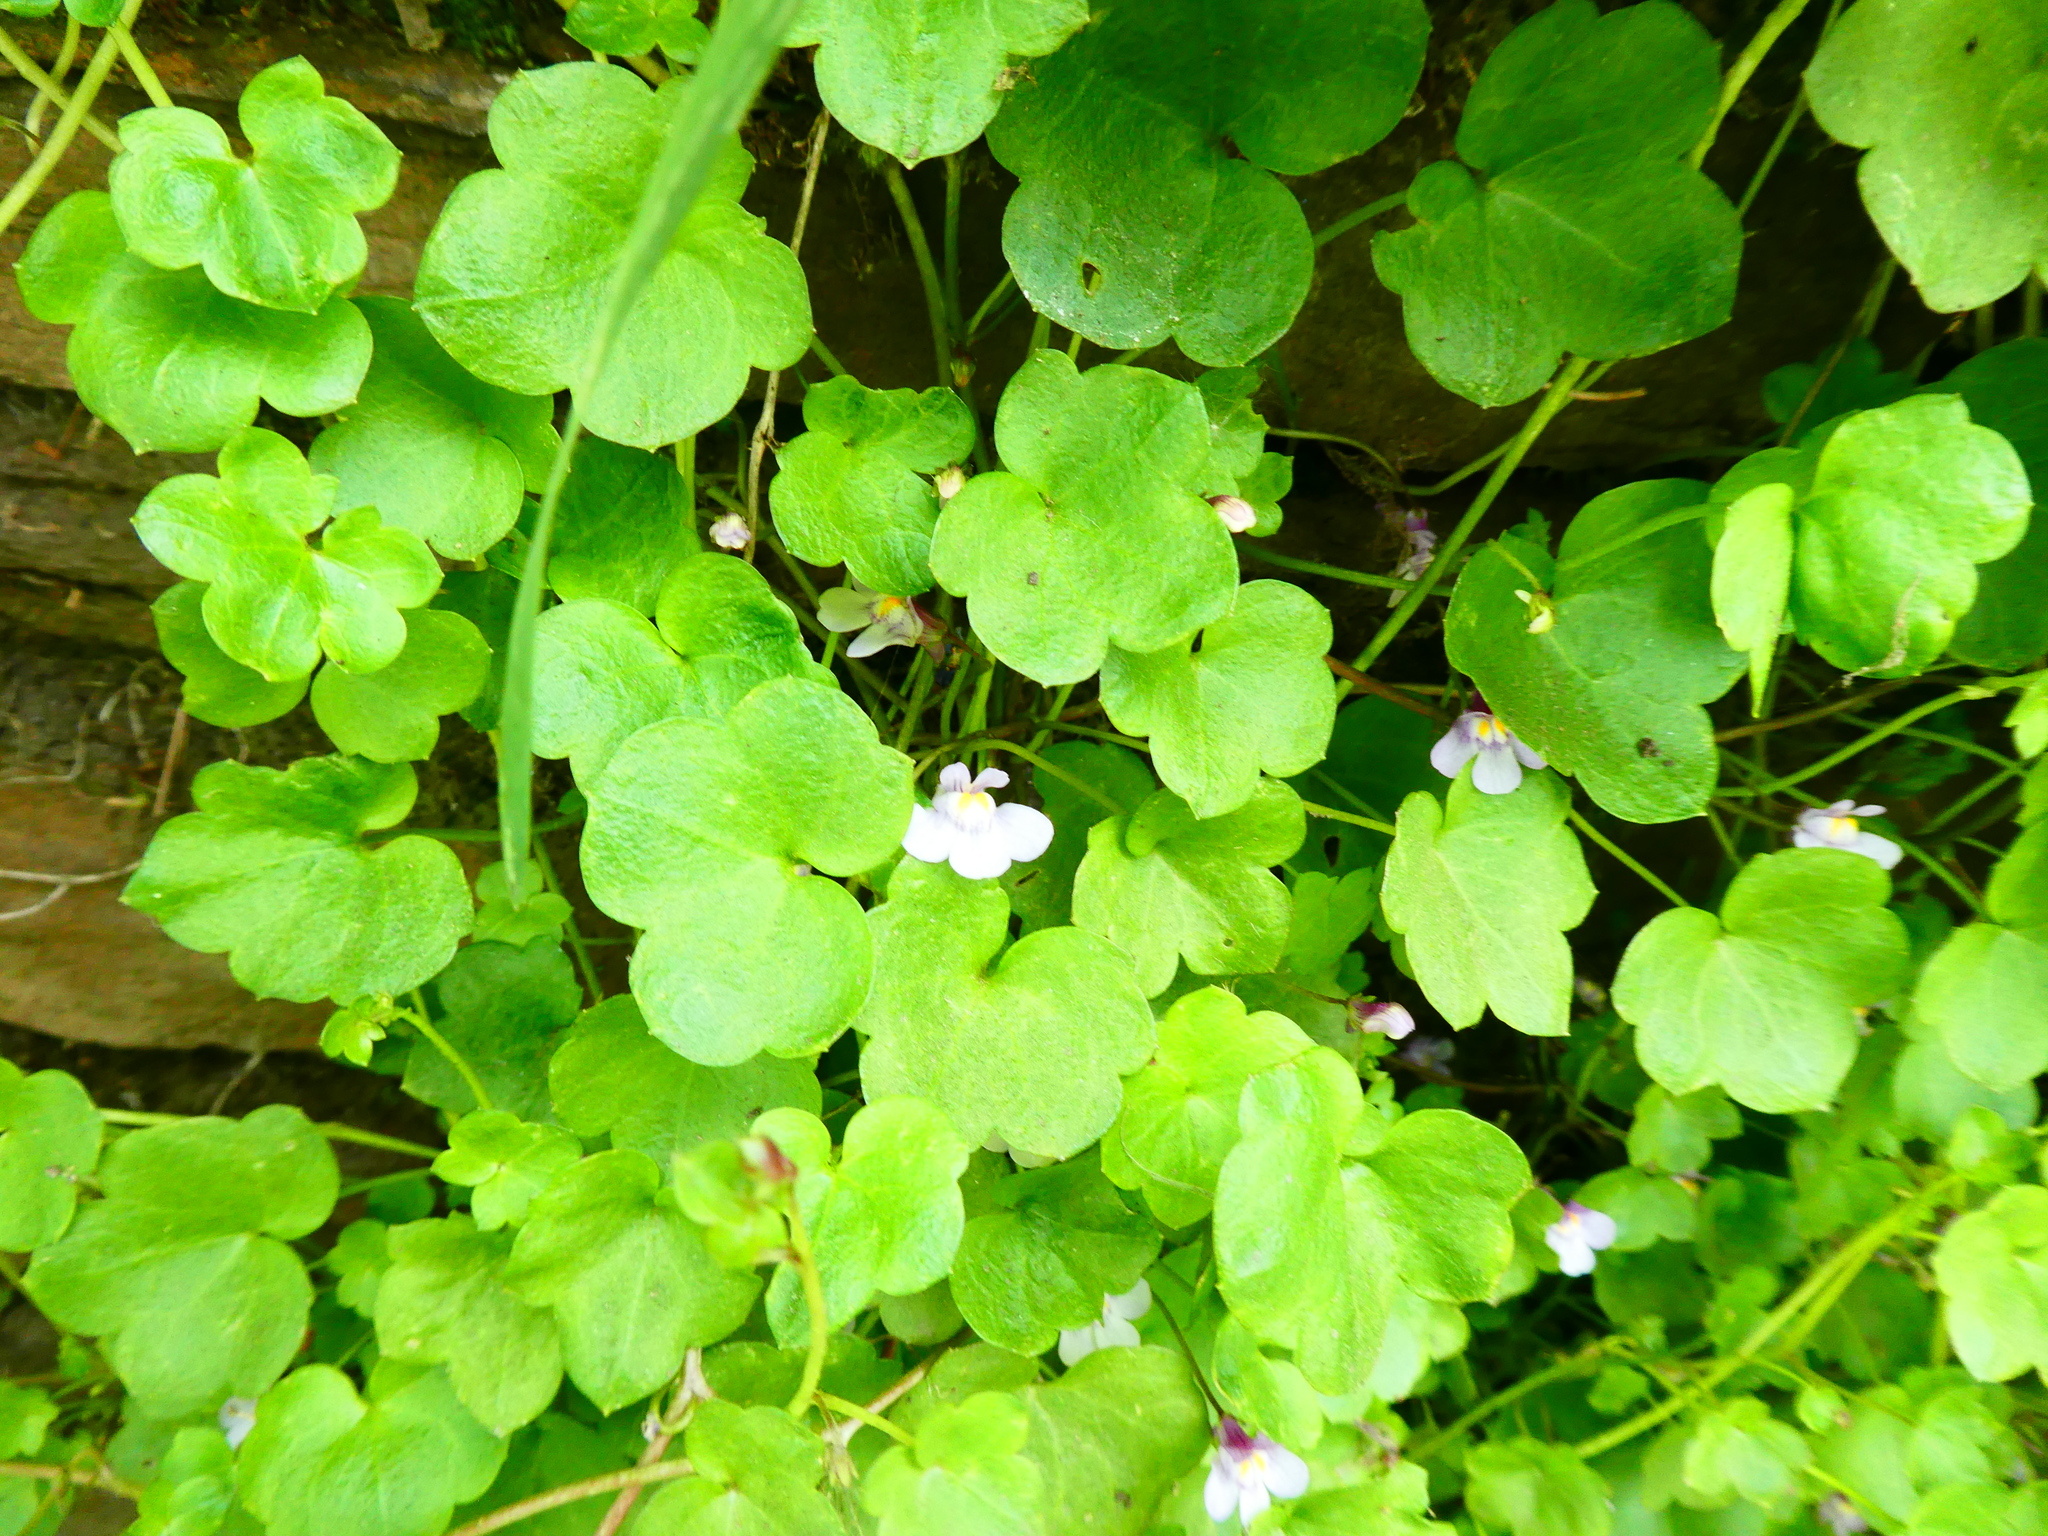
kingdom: Plantae
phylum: Tracheophyta
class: Magnoliopsida
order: Lamiales
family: Plantaginaceae
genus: Cymbalaria
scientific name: Cymbalaria muralis
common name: Ivy-leaved toadflax
